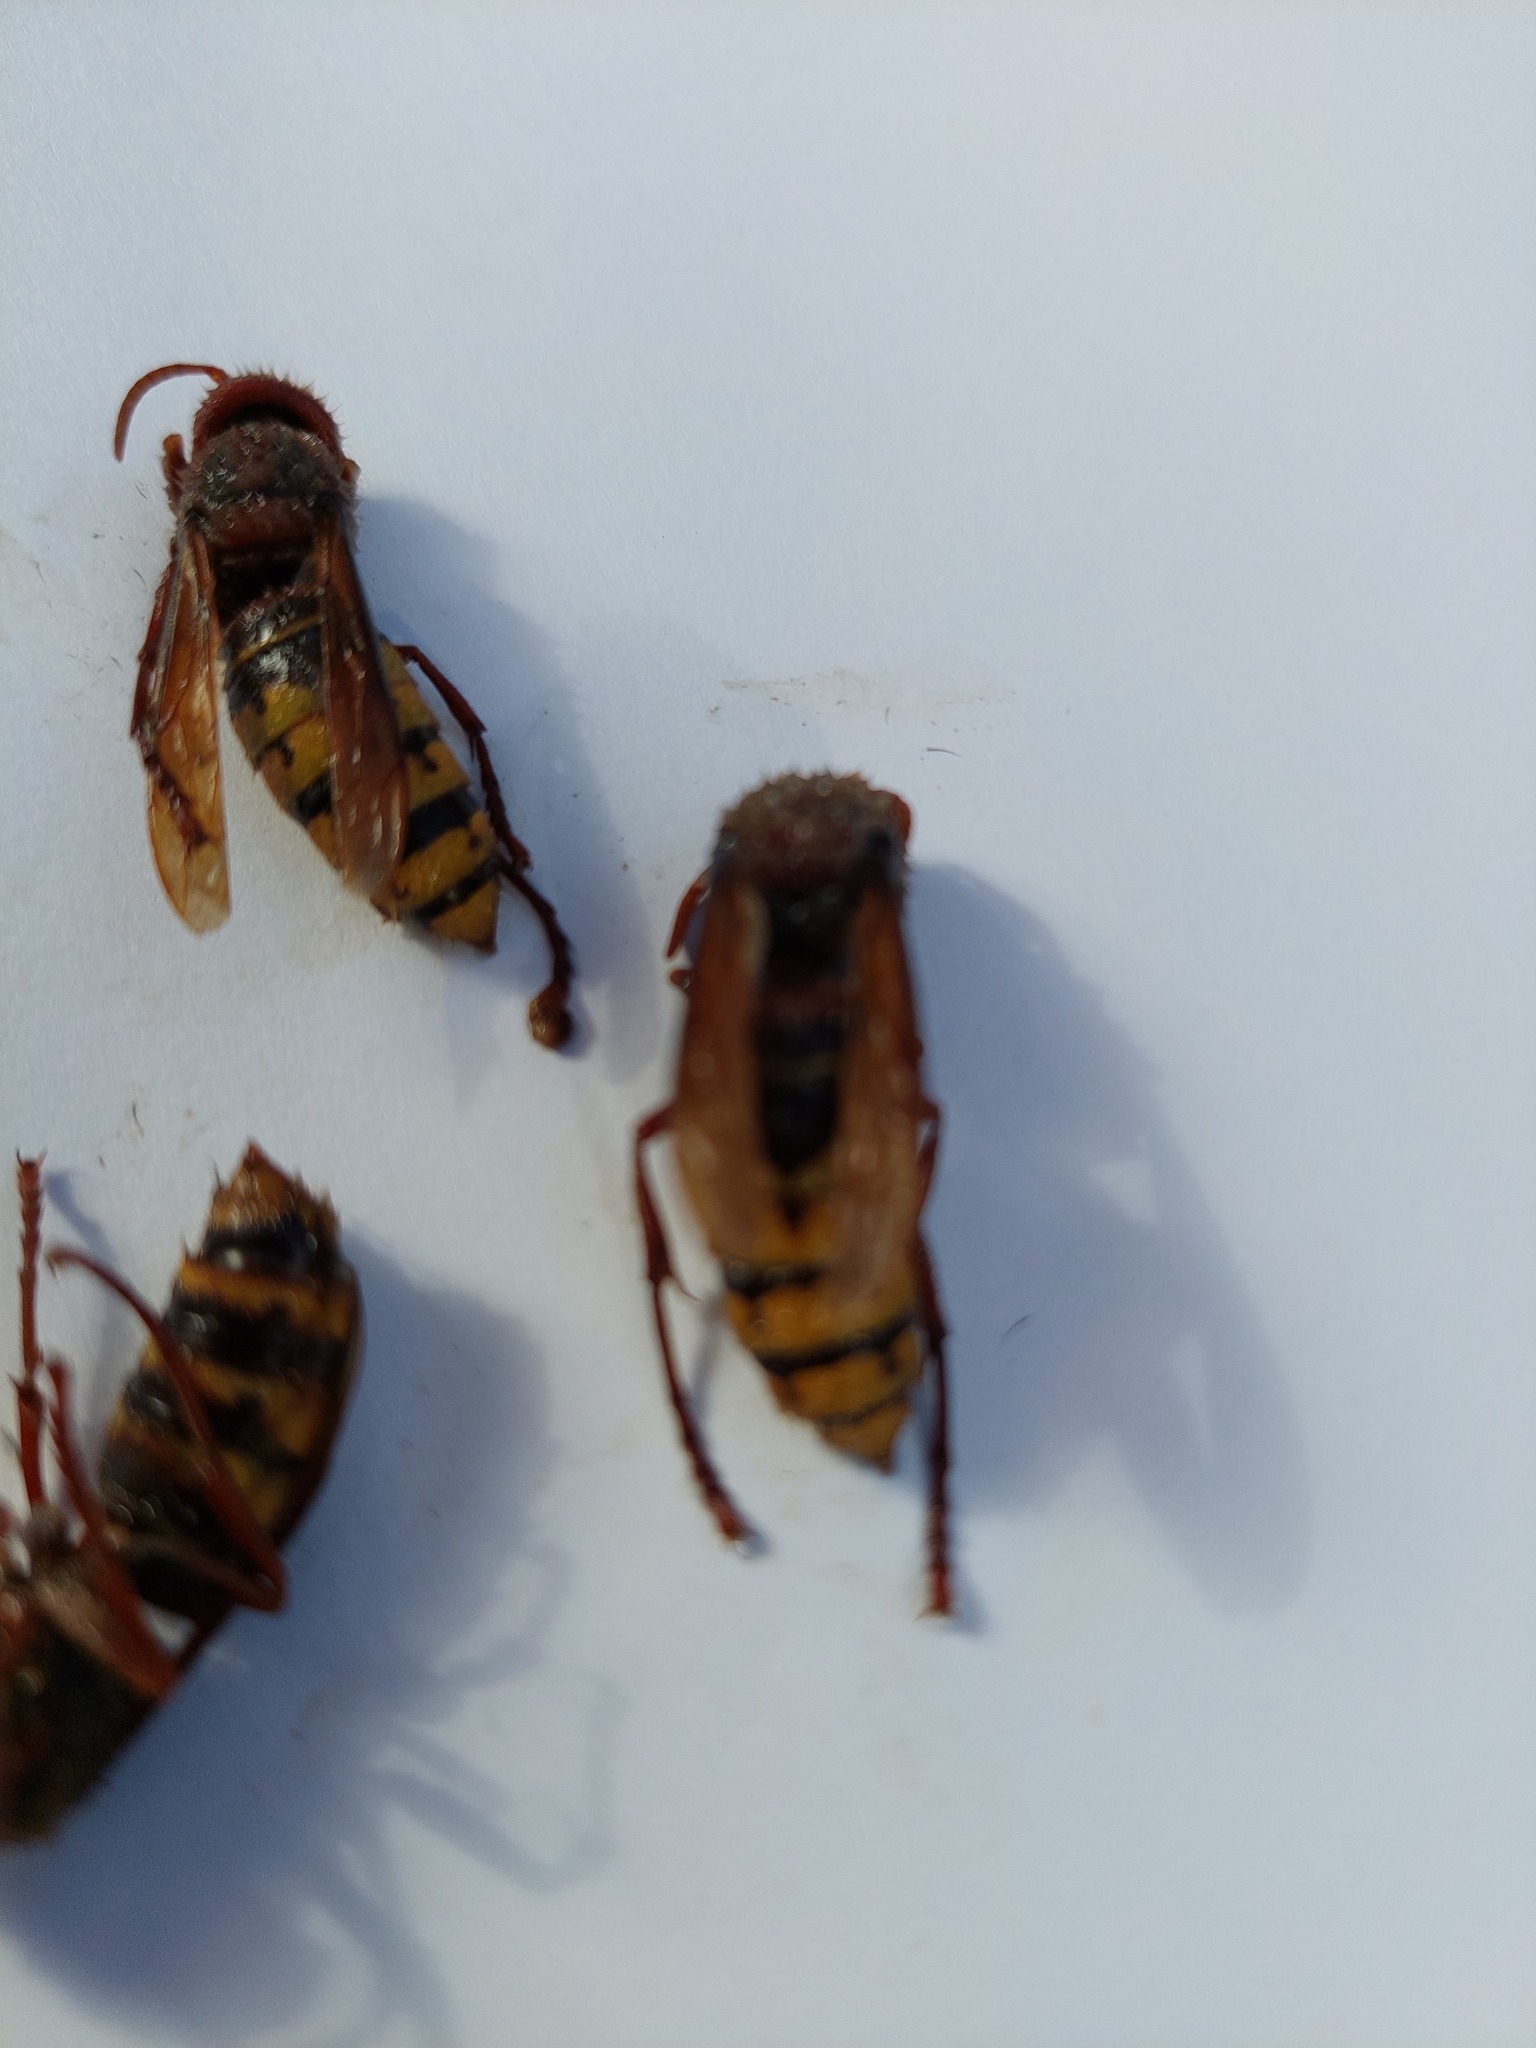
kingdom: Animalia
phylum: Arthropoda
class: Insecta
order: Hymenoptera
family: Vespidae
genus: Vespa
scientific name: Vespa crabro
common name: Hornet
